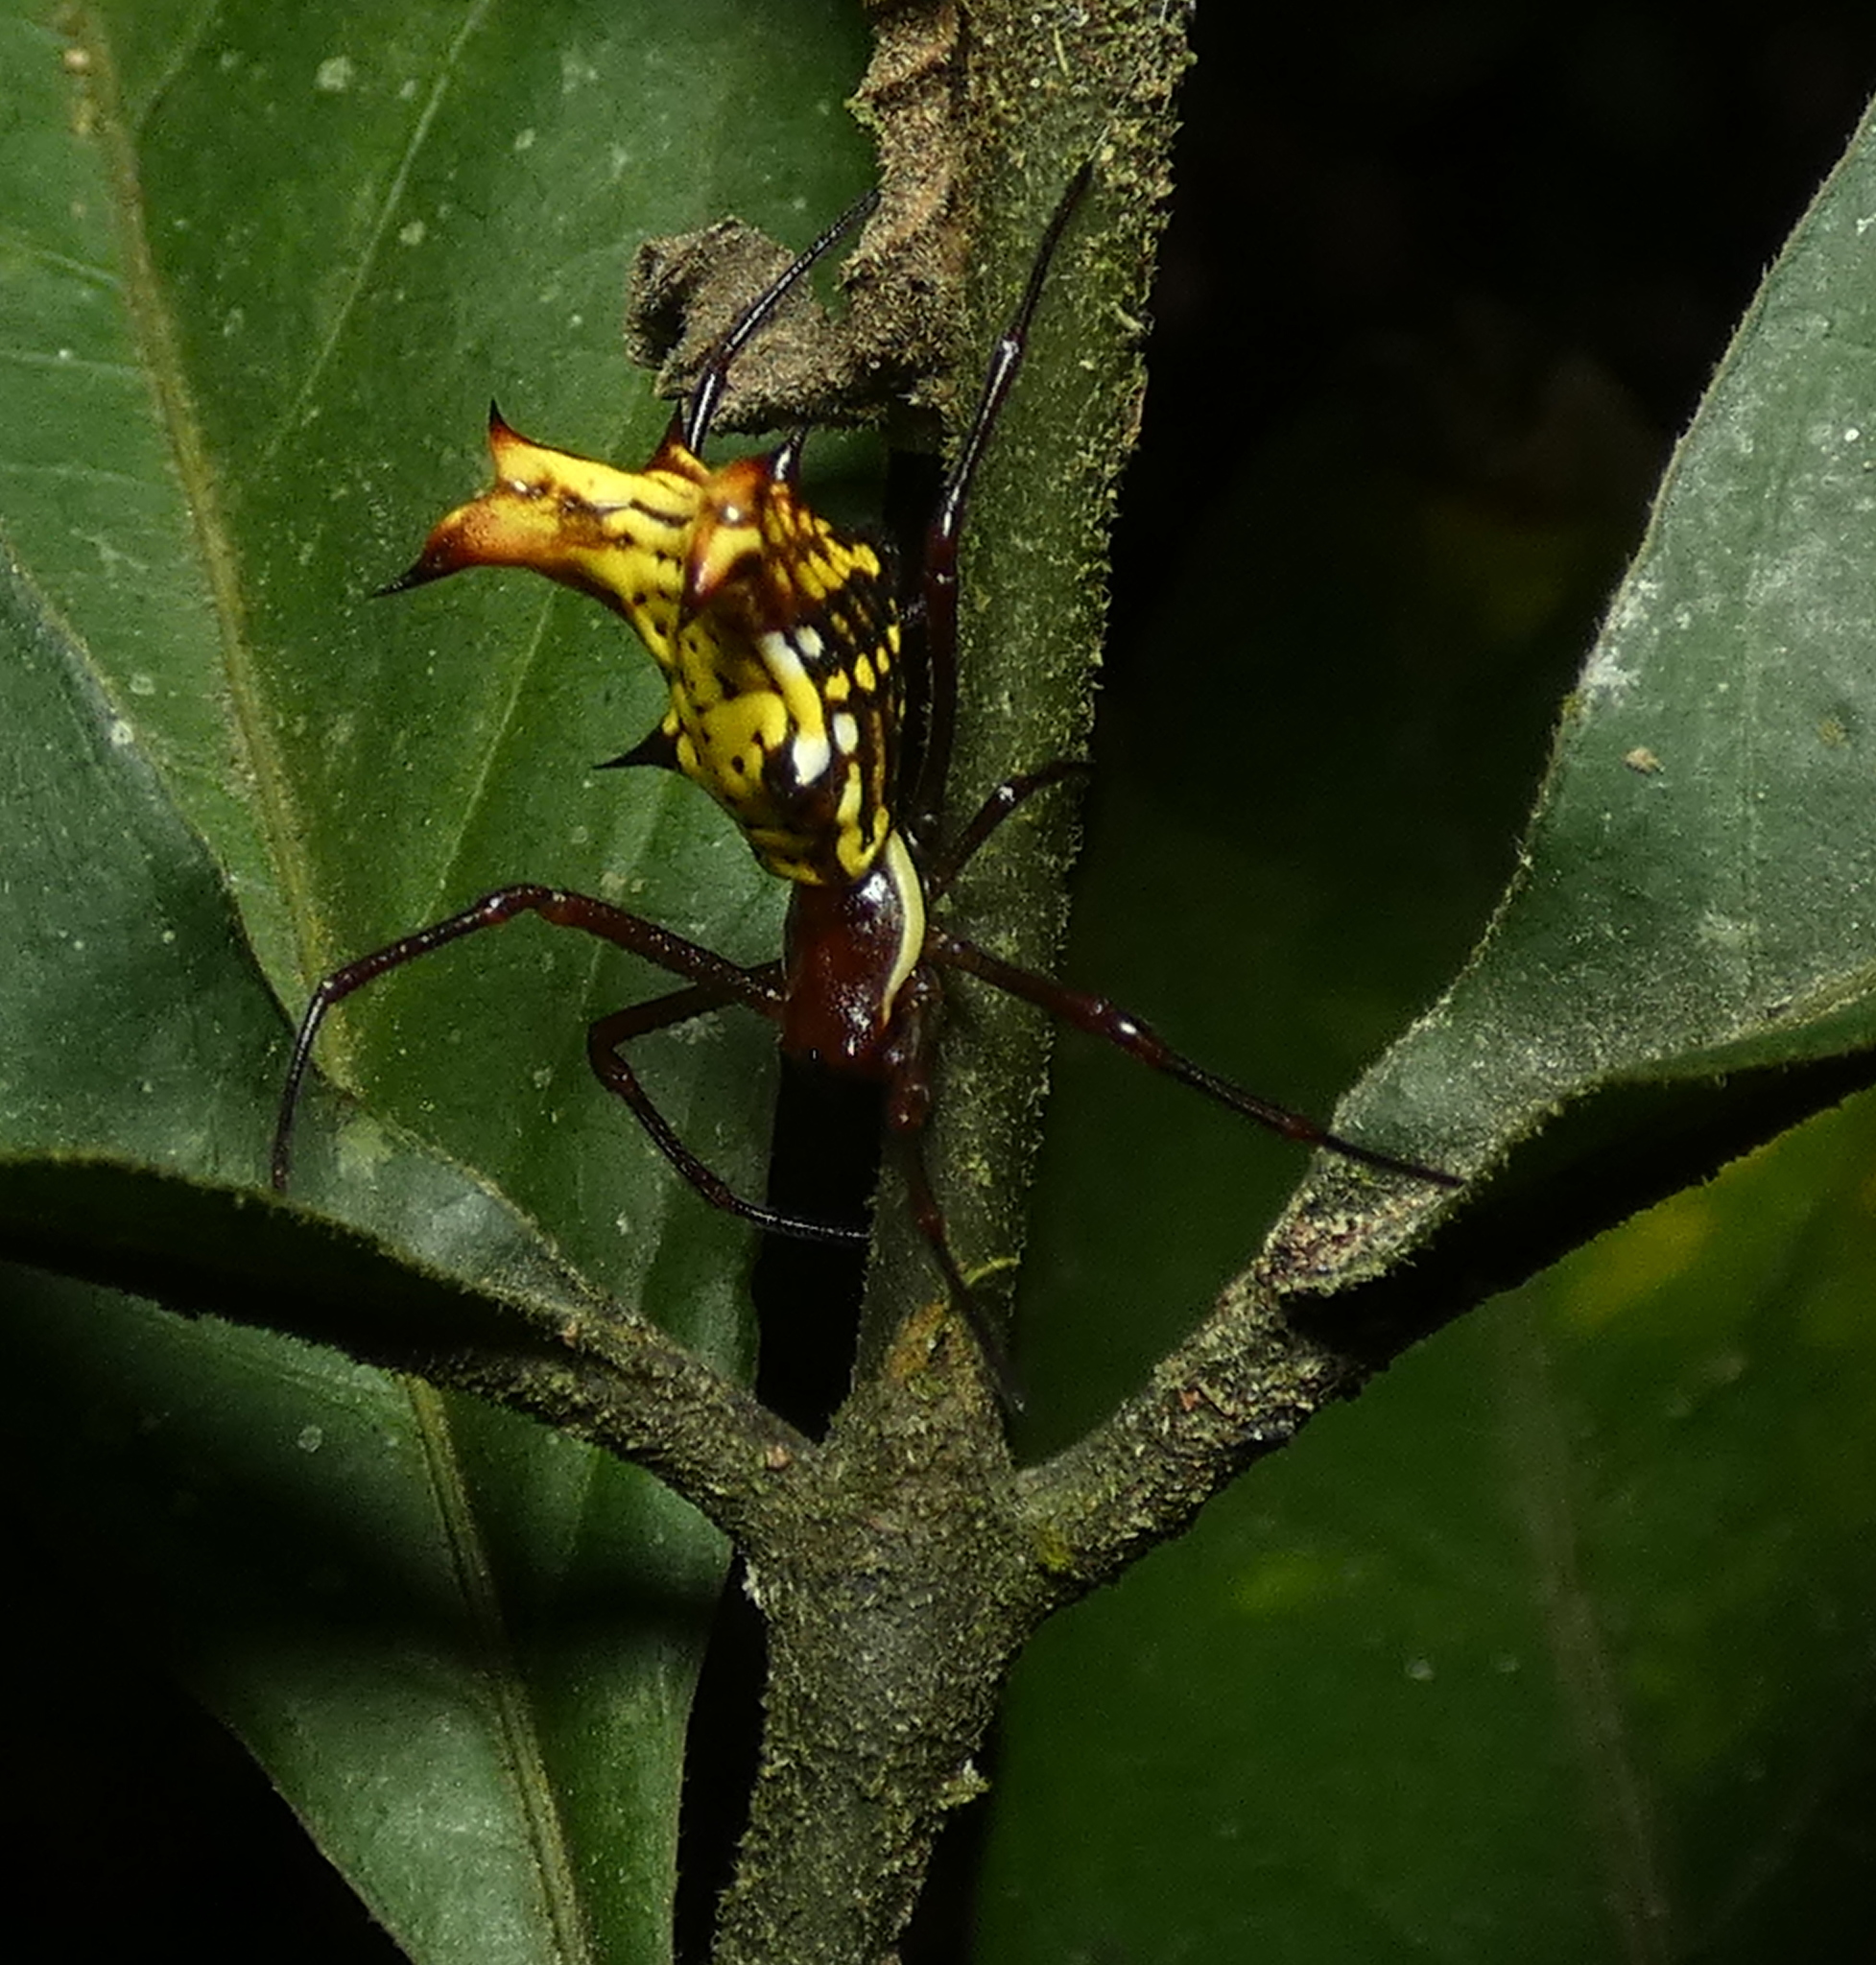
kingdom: Animalia
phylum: Arthropoda
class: Arachnida
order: Araneae
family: Araneidae
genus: Micrathena
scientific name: Micrathena fissispina
